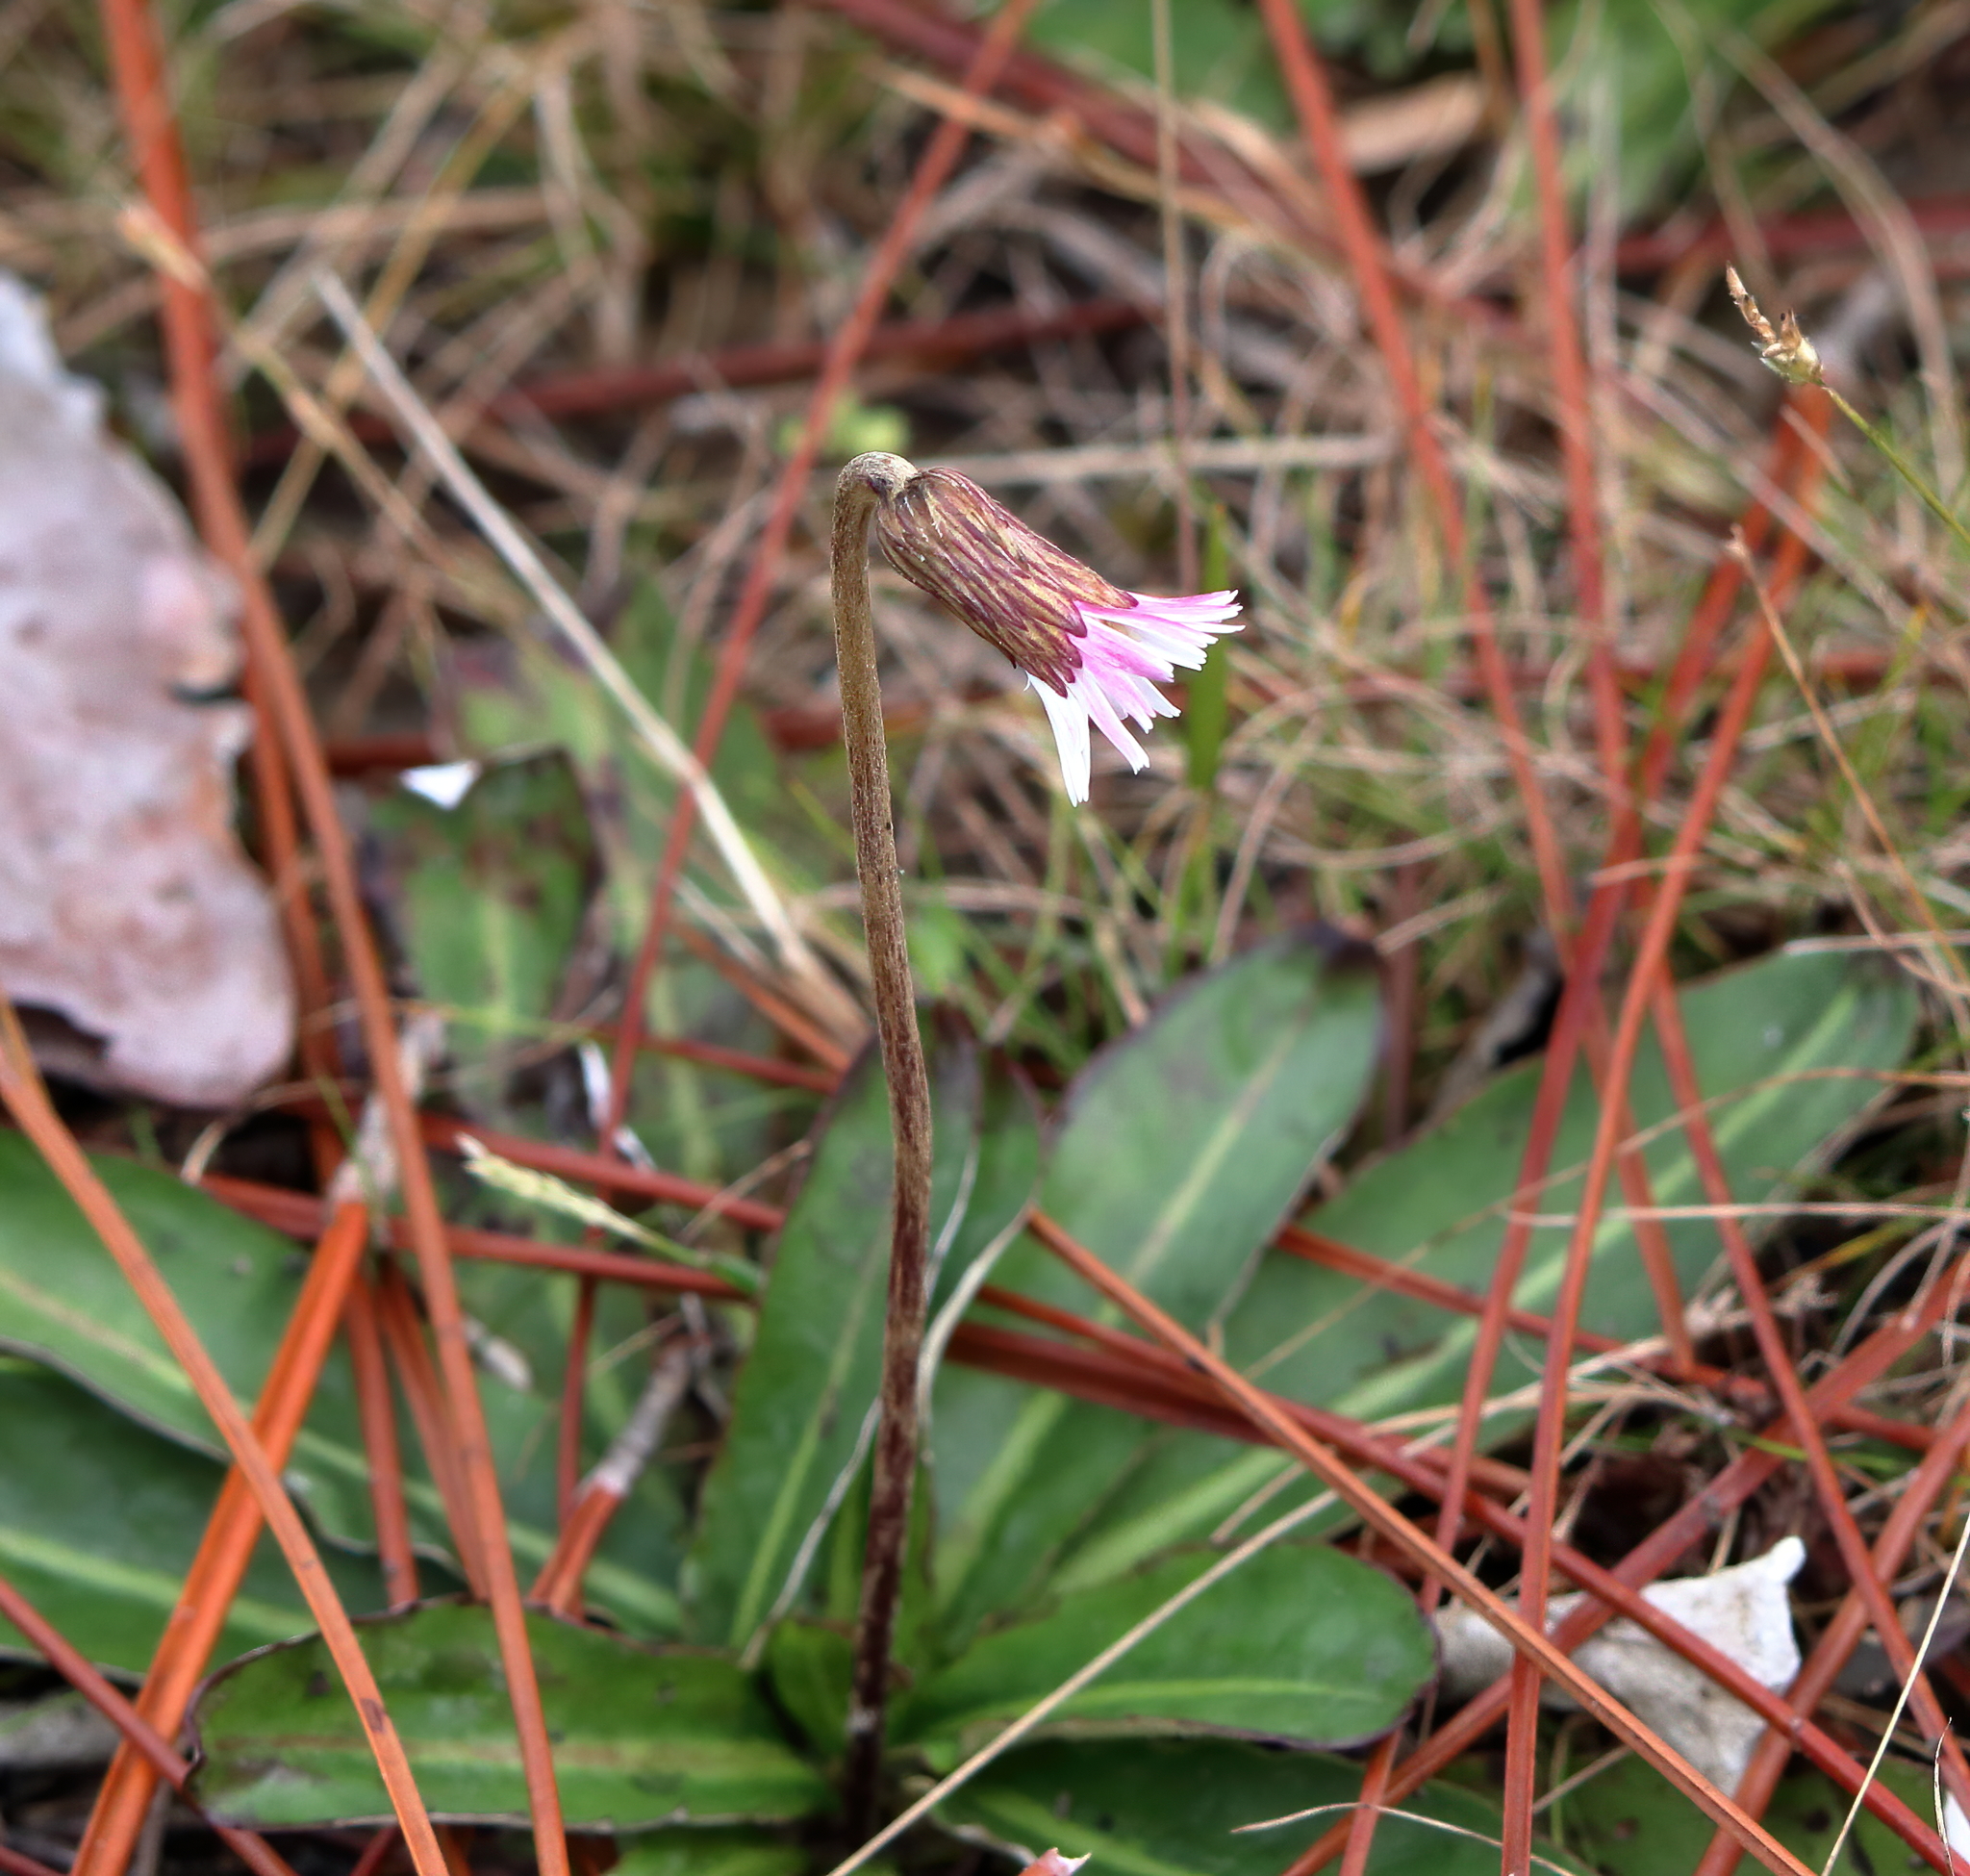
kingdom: Plantae
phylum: Tracheophyta
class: Magnoliopsida
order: Asterales
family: Asteraceae
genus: Chaptalia
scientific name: Chaptalia tomentosa
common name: Woolly sunbonnet
